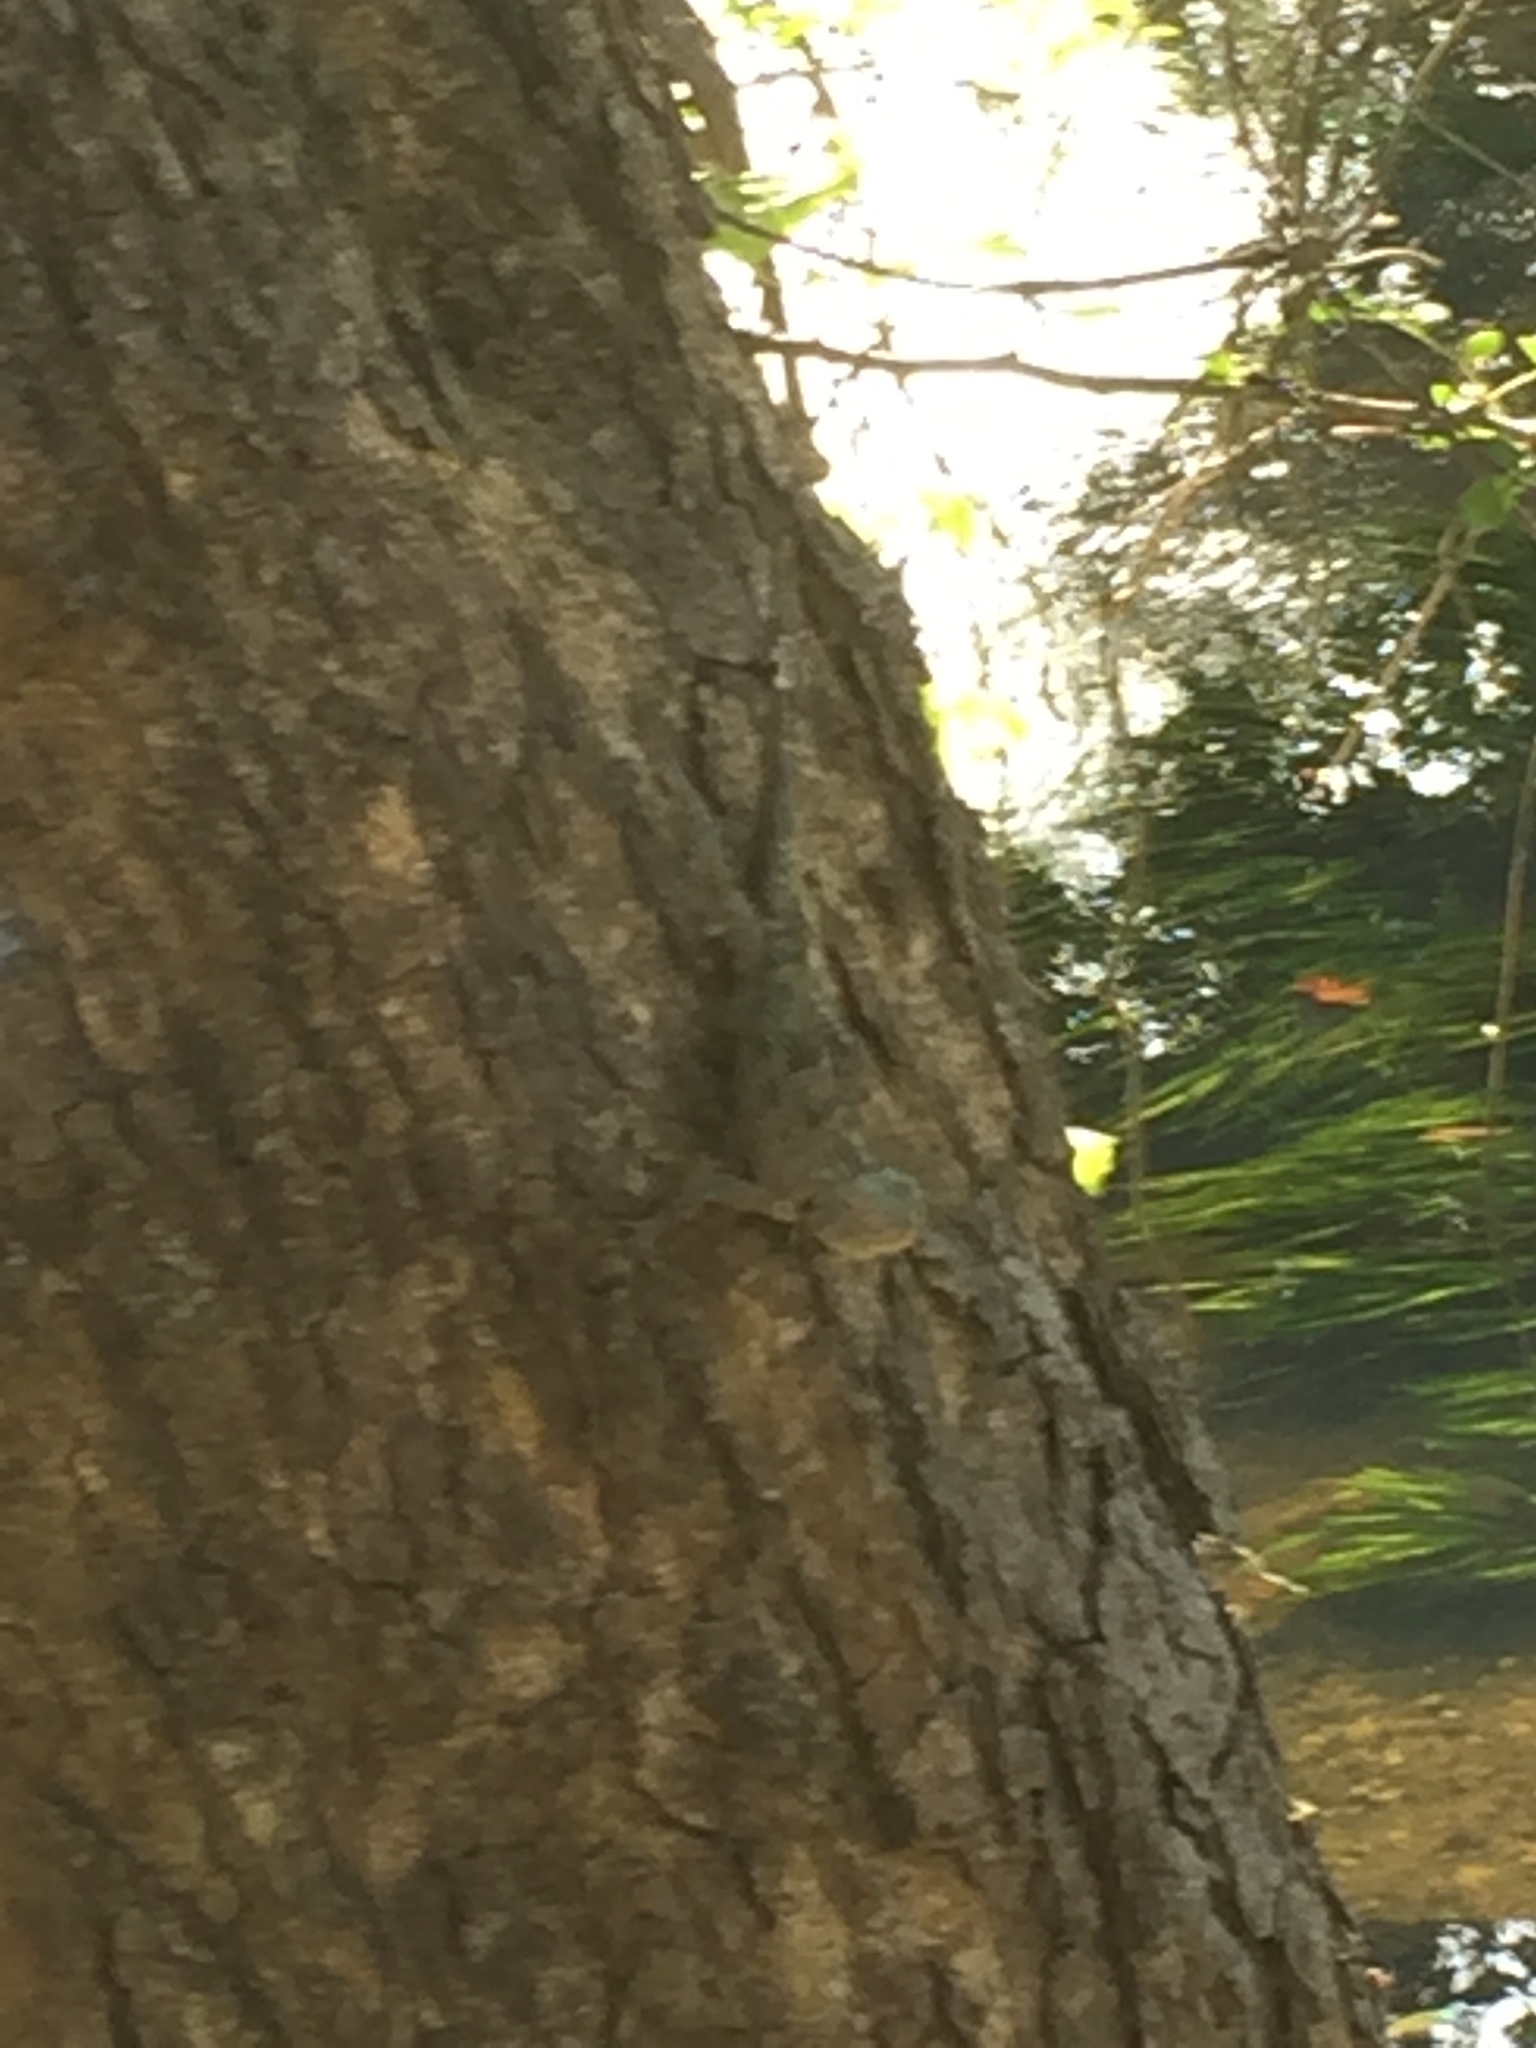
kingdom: Animalia
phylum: Chordata
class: Squamata
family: Agamidae
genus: Calotes
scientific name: Calotes versicolor
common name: Oriental garden lizard
